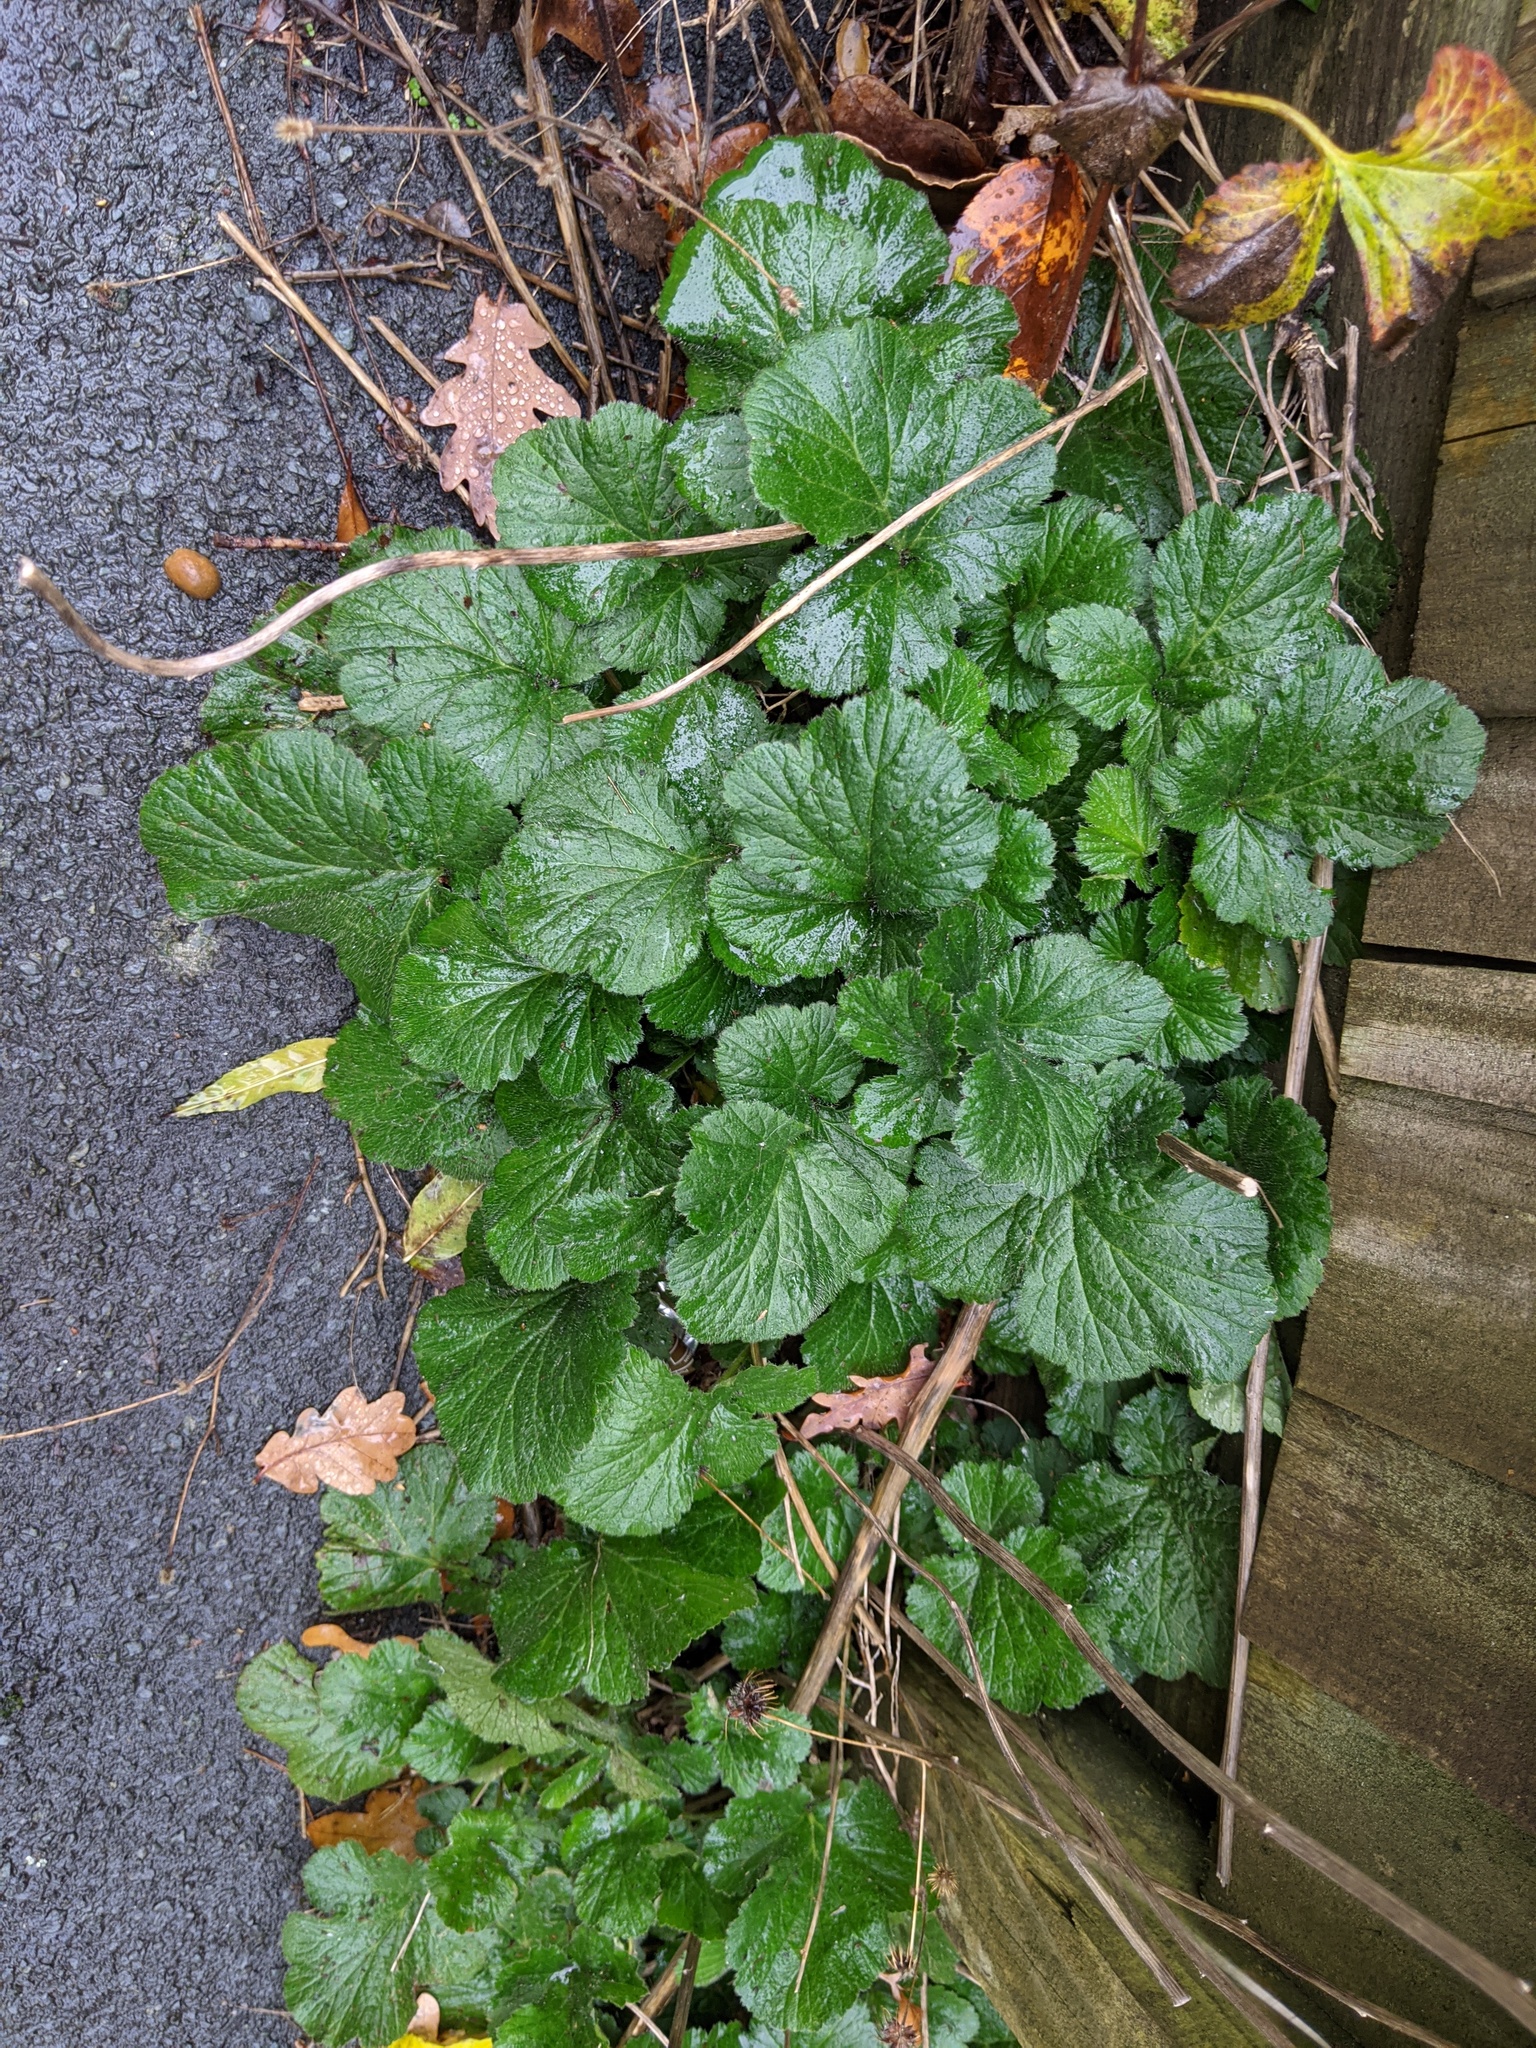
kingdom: Plantae
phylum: Tracheophyta
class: Magnoliopsida
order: Rosales
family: Rosaceae
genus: Geum
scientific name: Geum urbanum
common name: Wood avens
